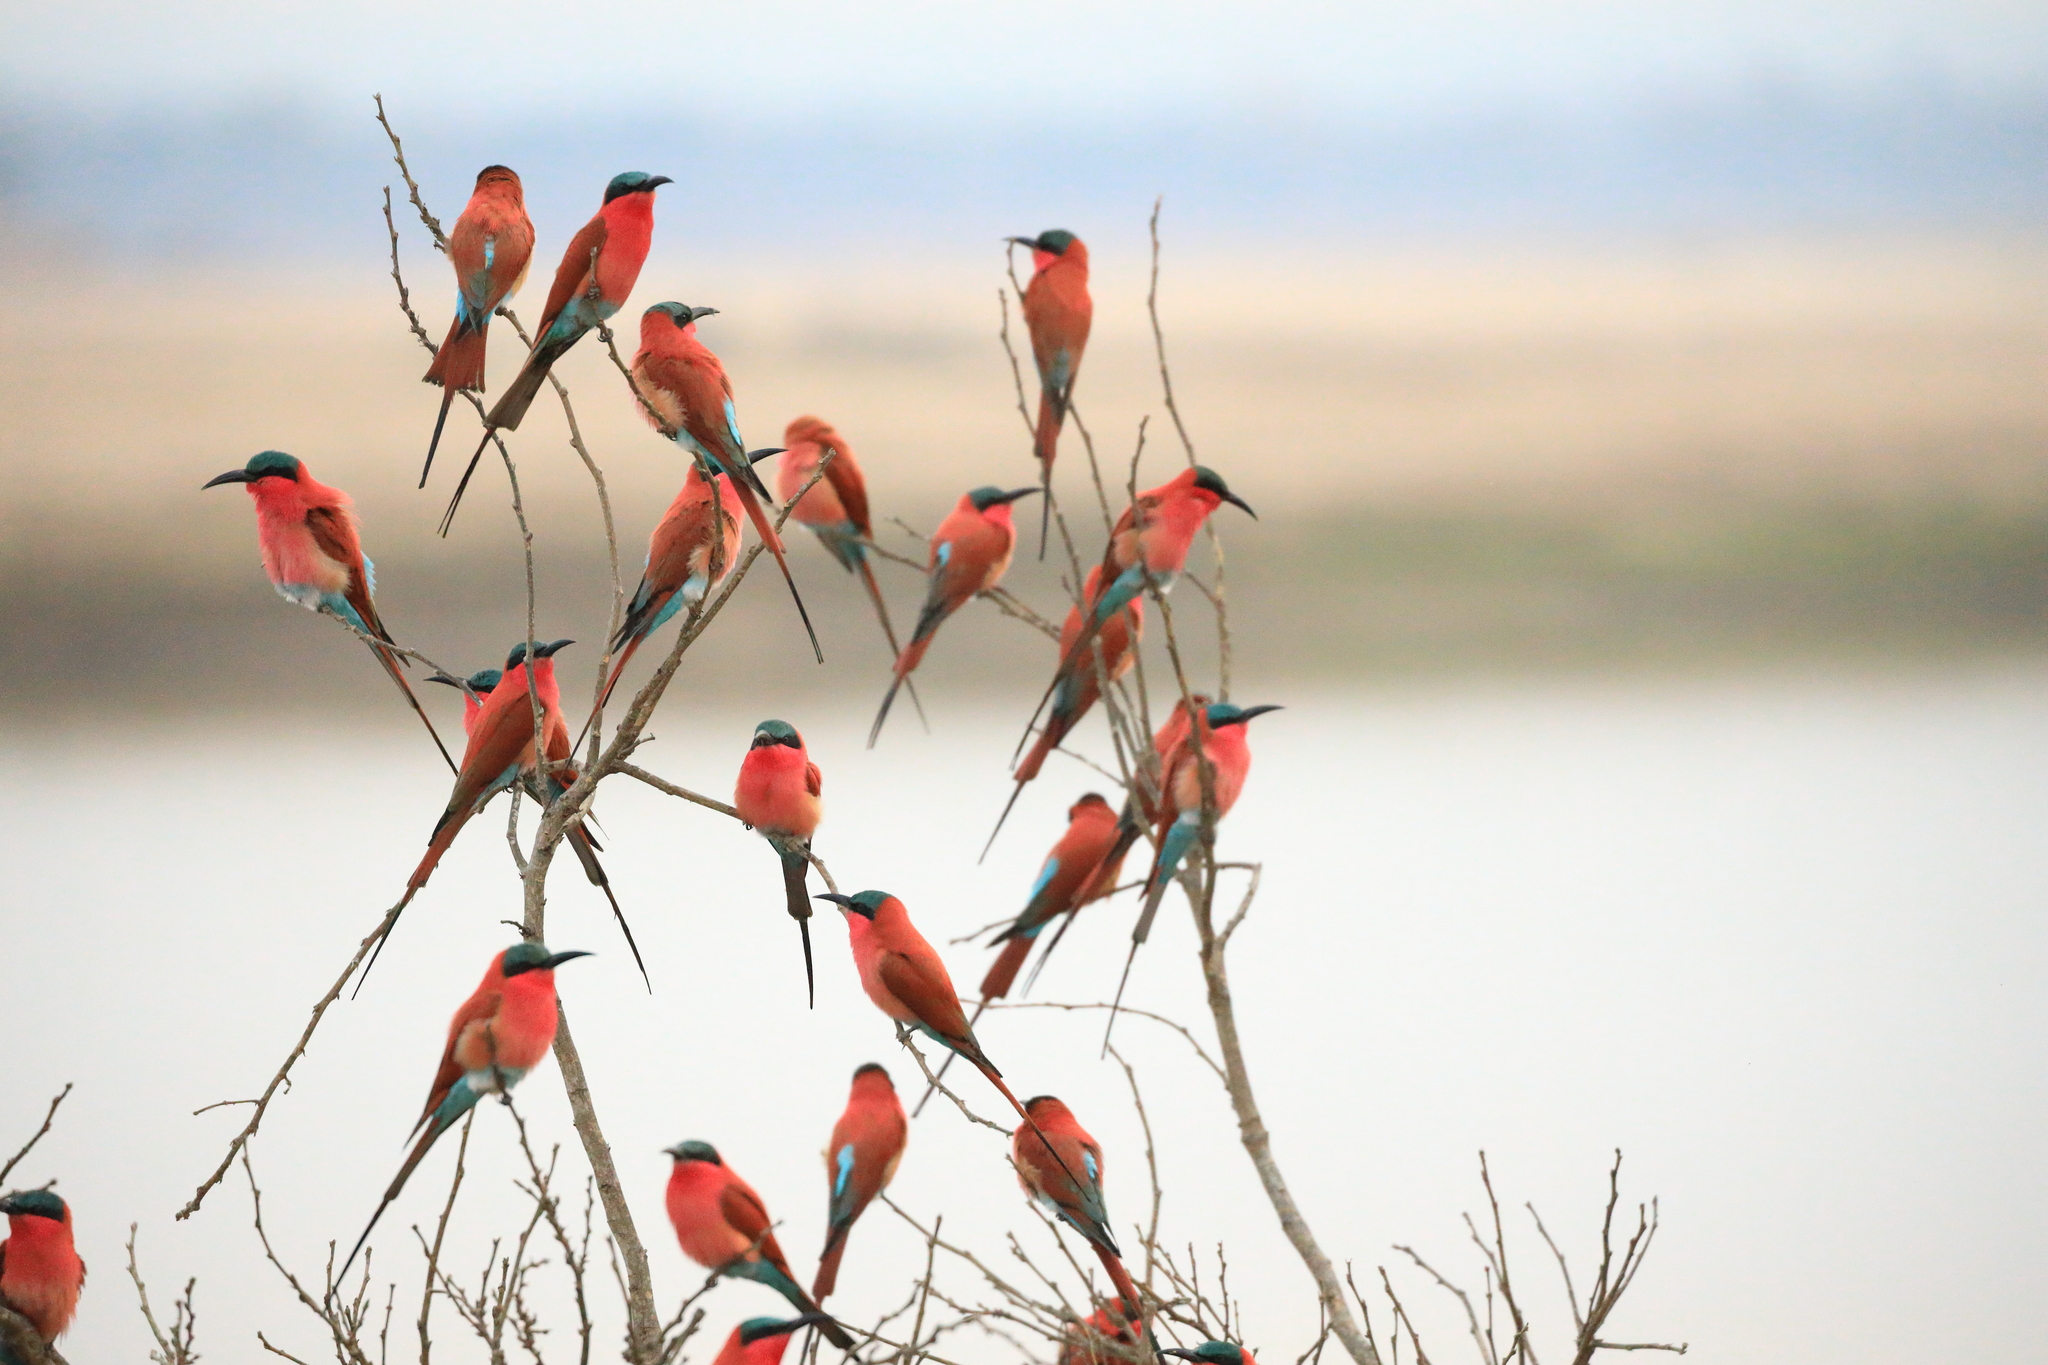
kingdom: Animalia
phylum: Chordata
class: Aves
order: Coraciiformes
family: Meropidae
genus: Merops
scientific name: Merops nubicoides
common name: Southern carmine bee-eater
